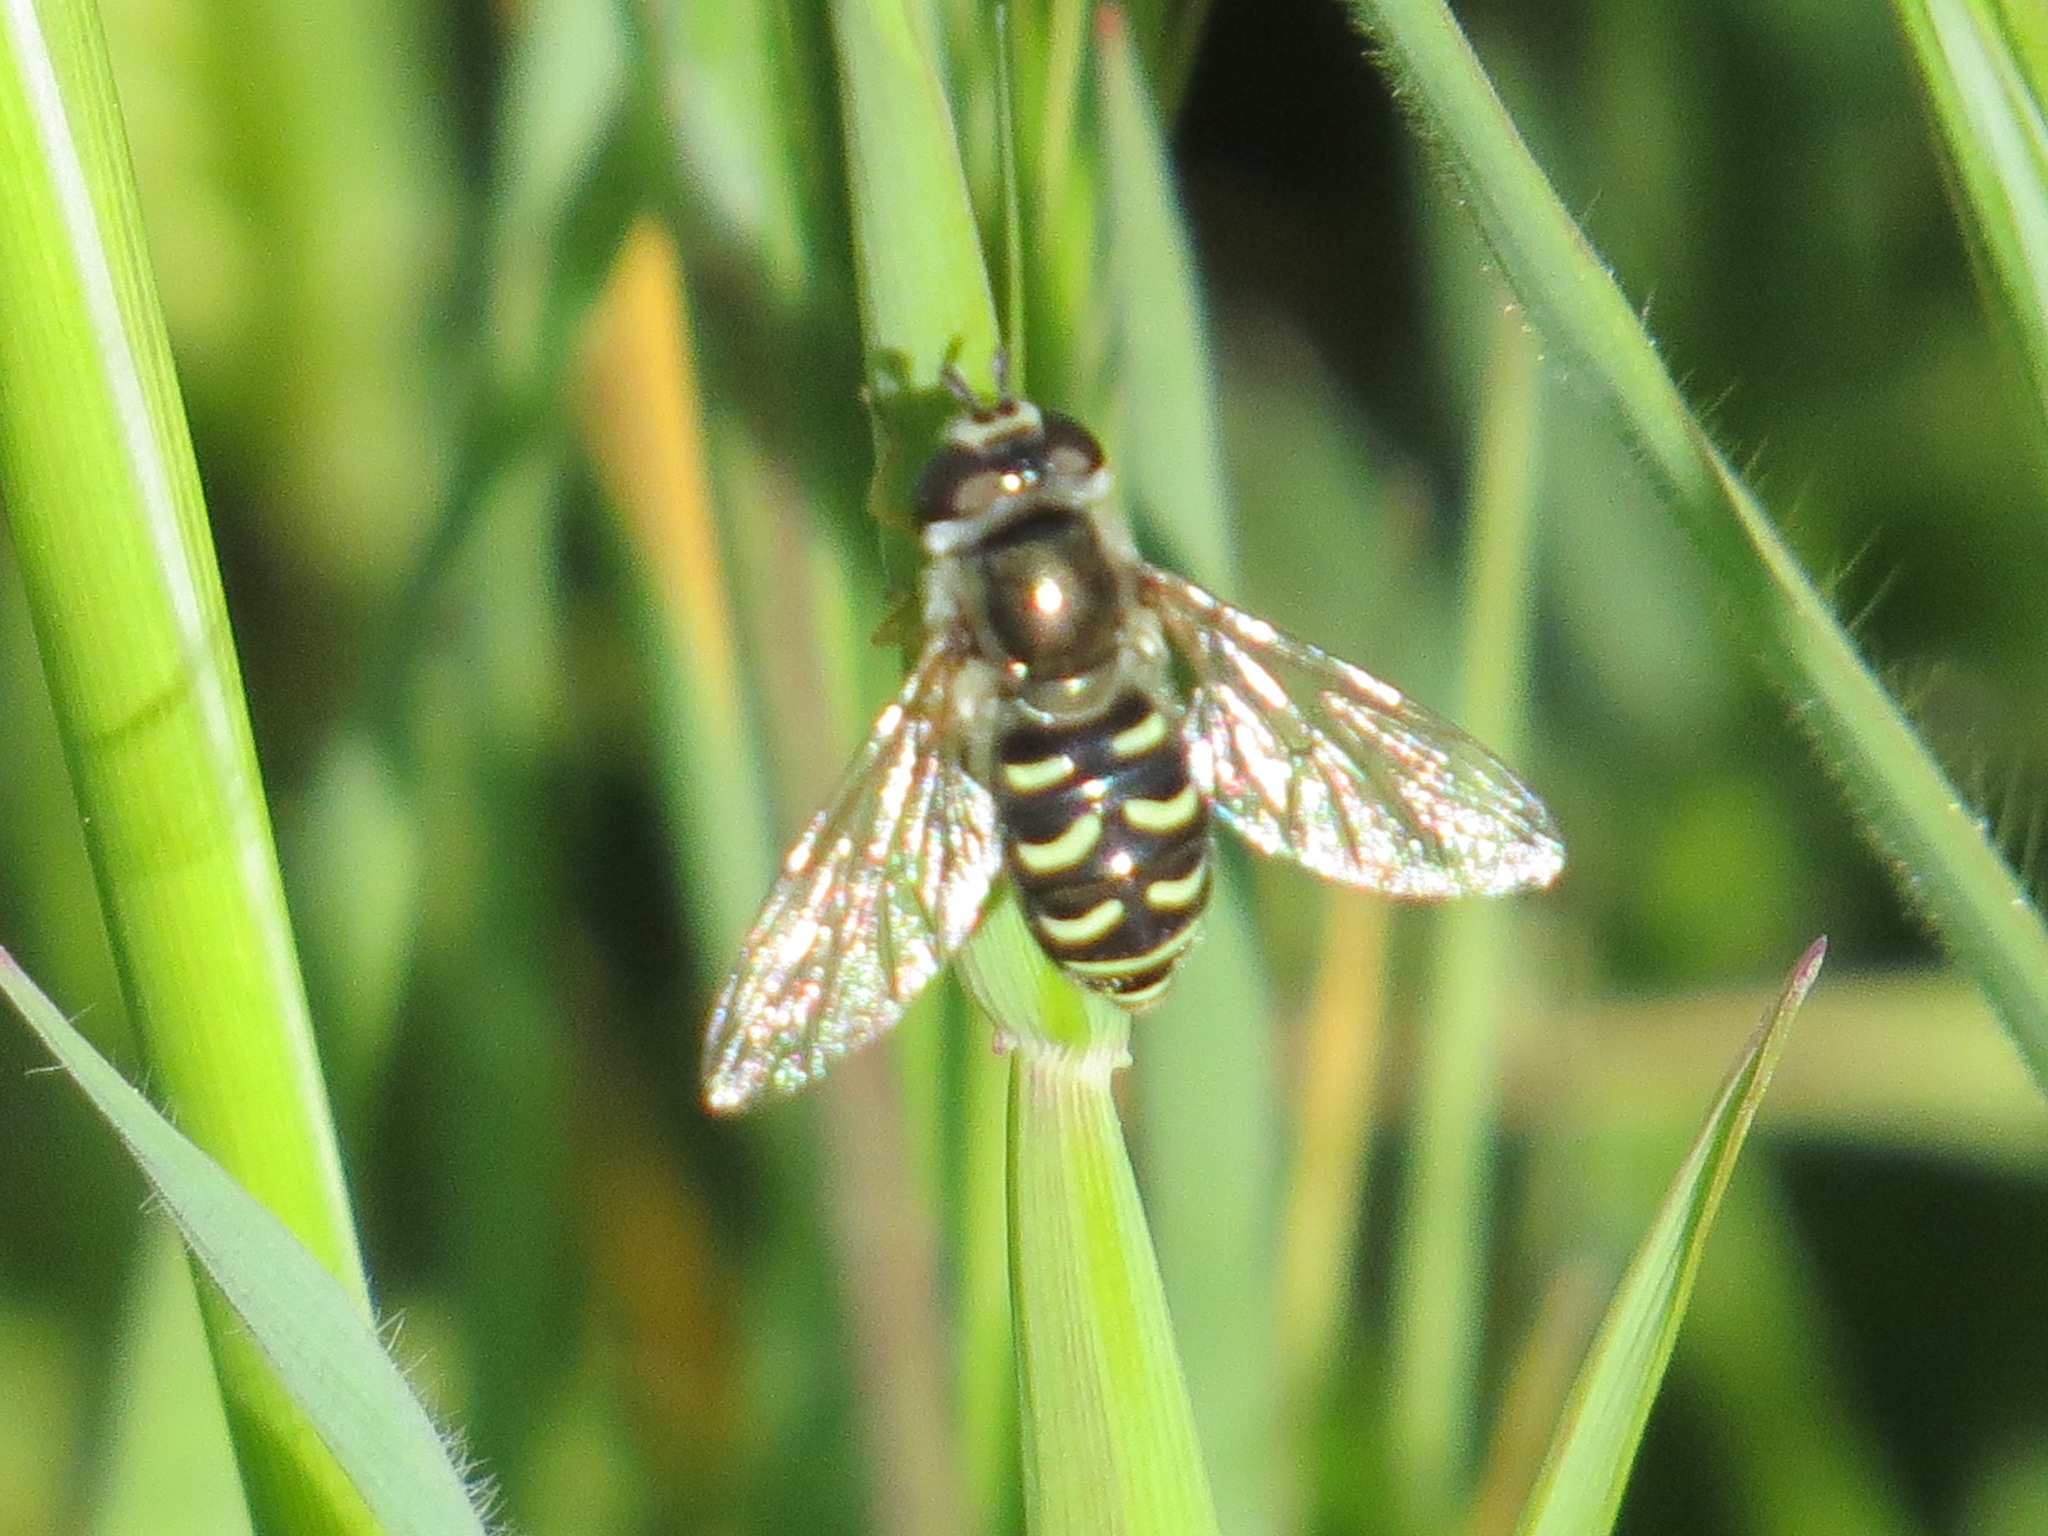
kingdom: Animalia
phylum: Arthropoda
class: Insecta
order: Diptera
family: Syrphidae
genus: Eupeodes
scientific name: Eupeodes volucris
